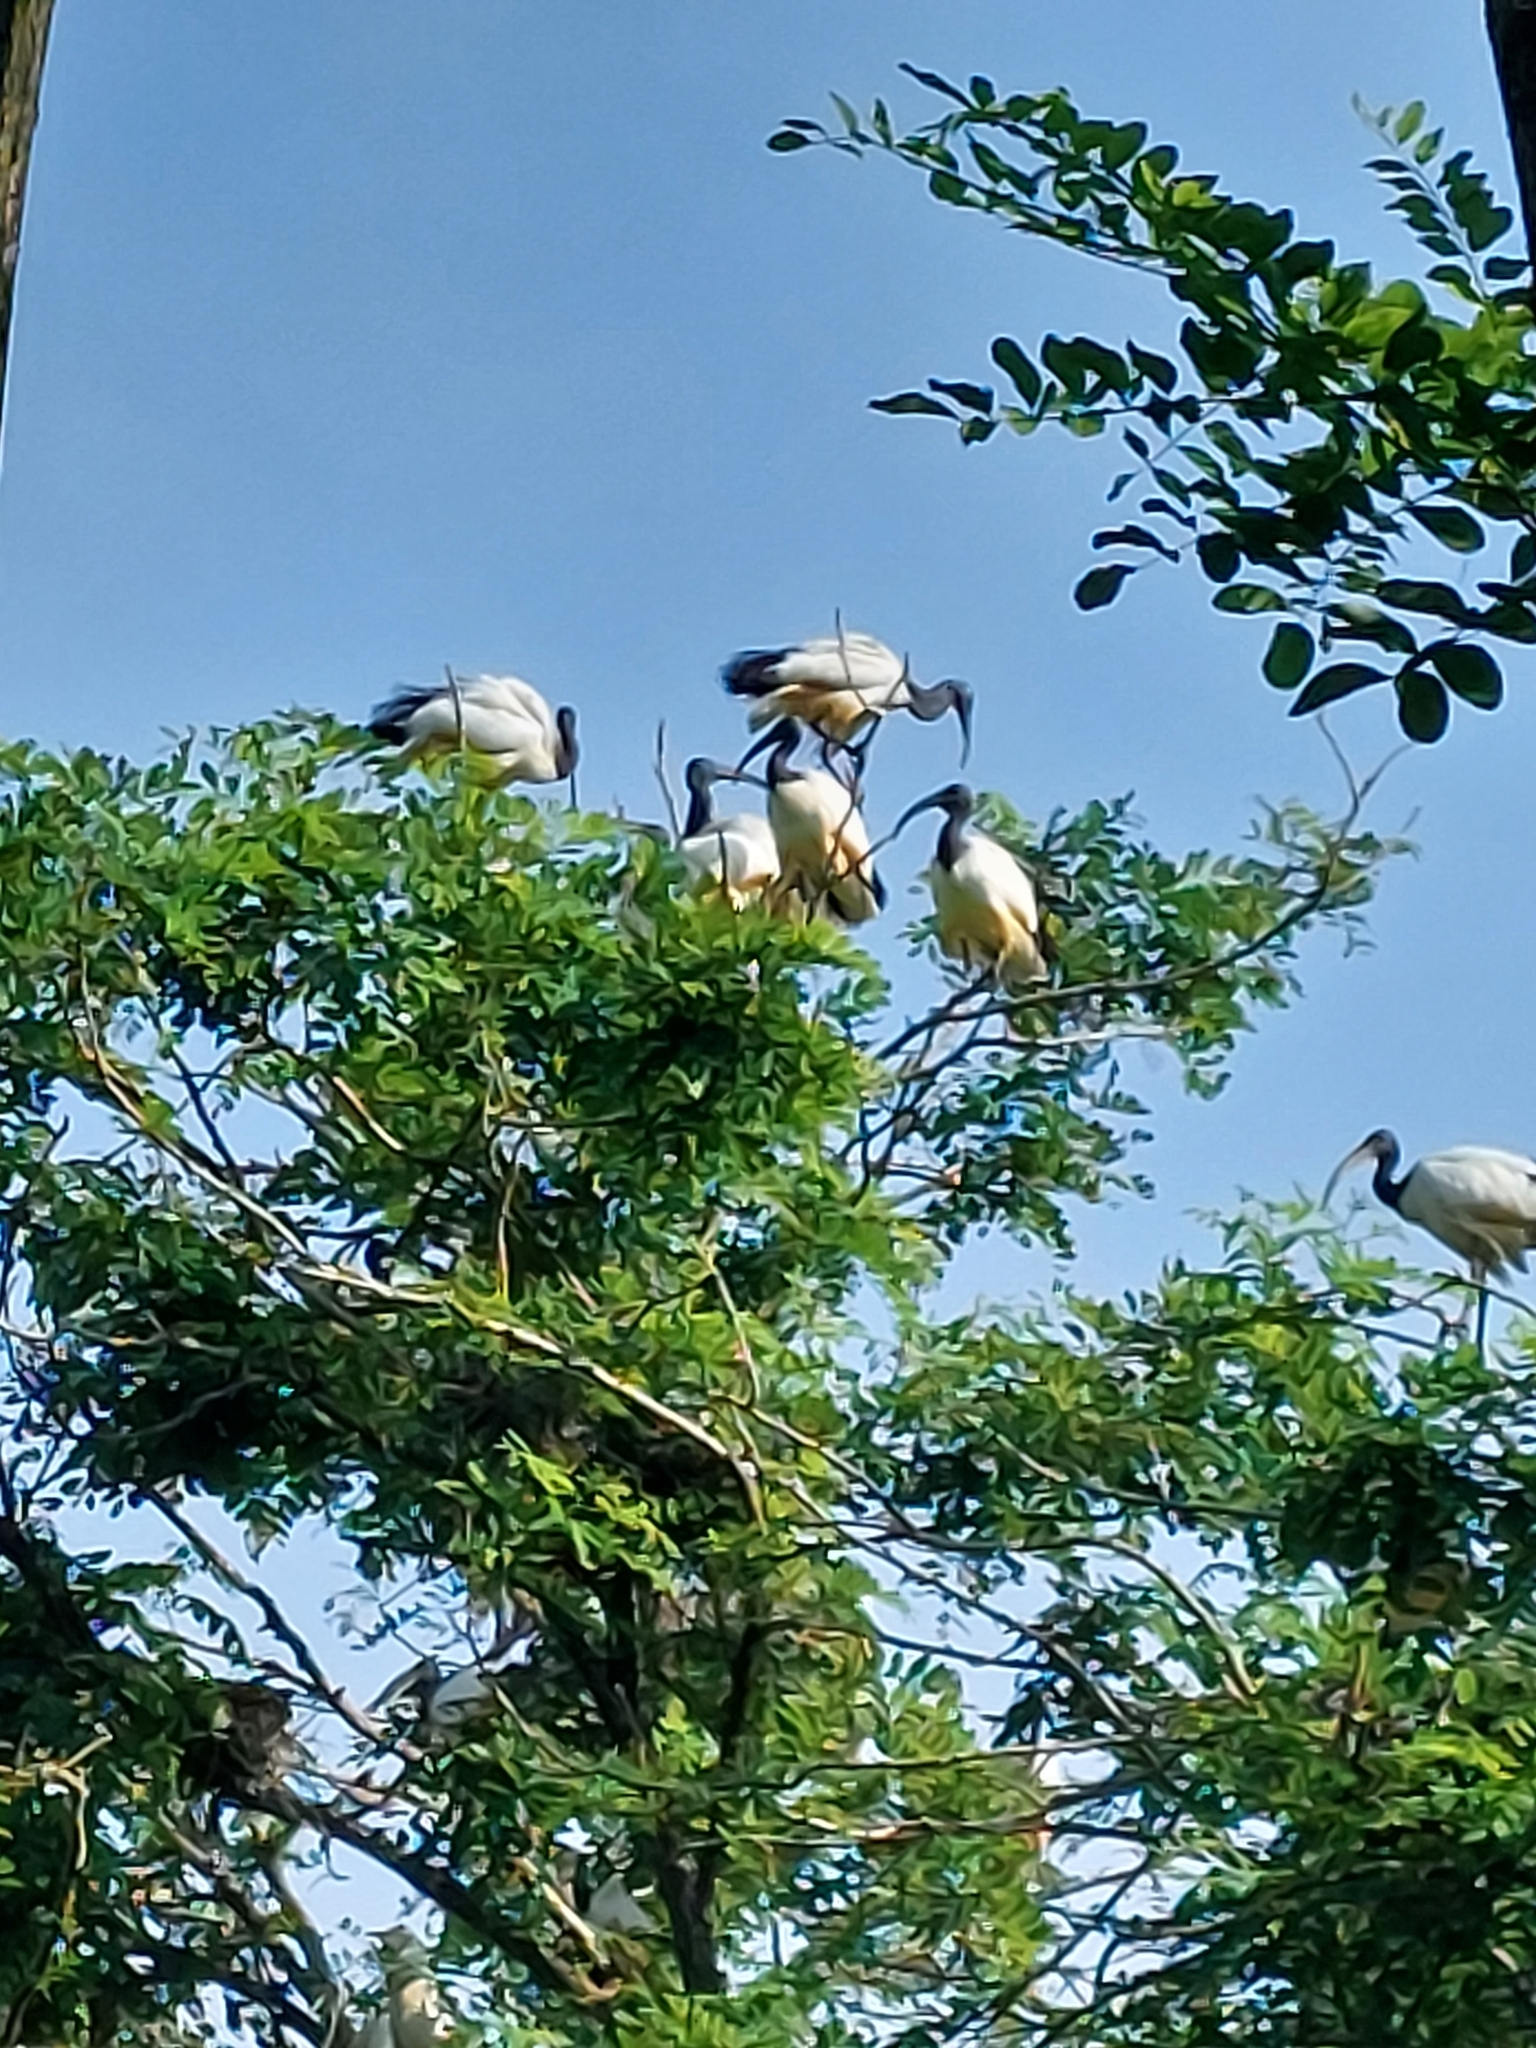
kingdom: Animalia
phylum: Chordata
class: Aves
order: Pelecaniformes
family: Threskiornithidae
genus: Threskiornis
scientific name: Threskiornis aethiopicus
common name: Sacred ibis
